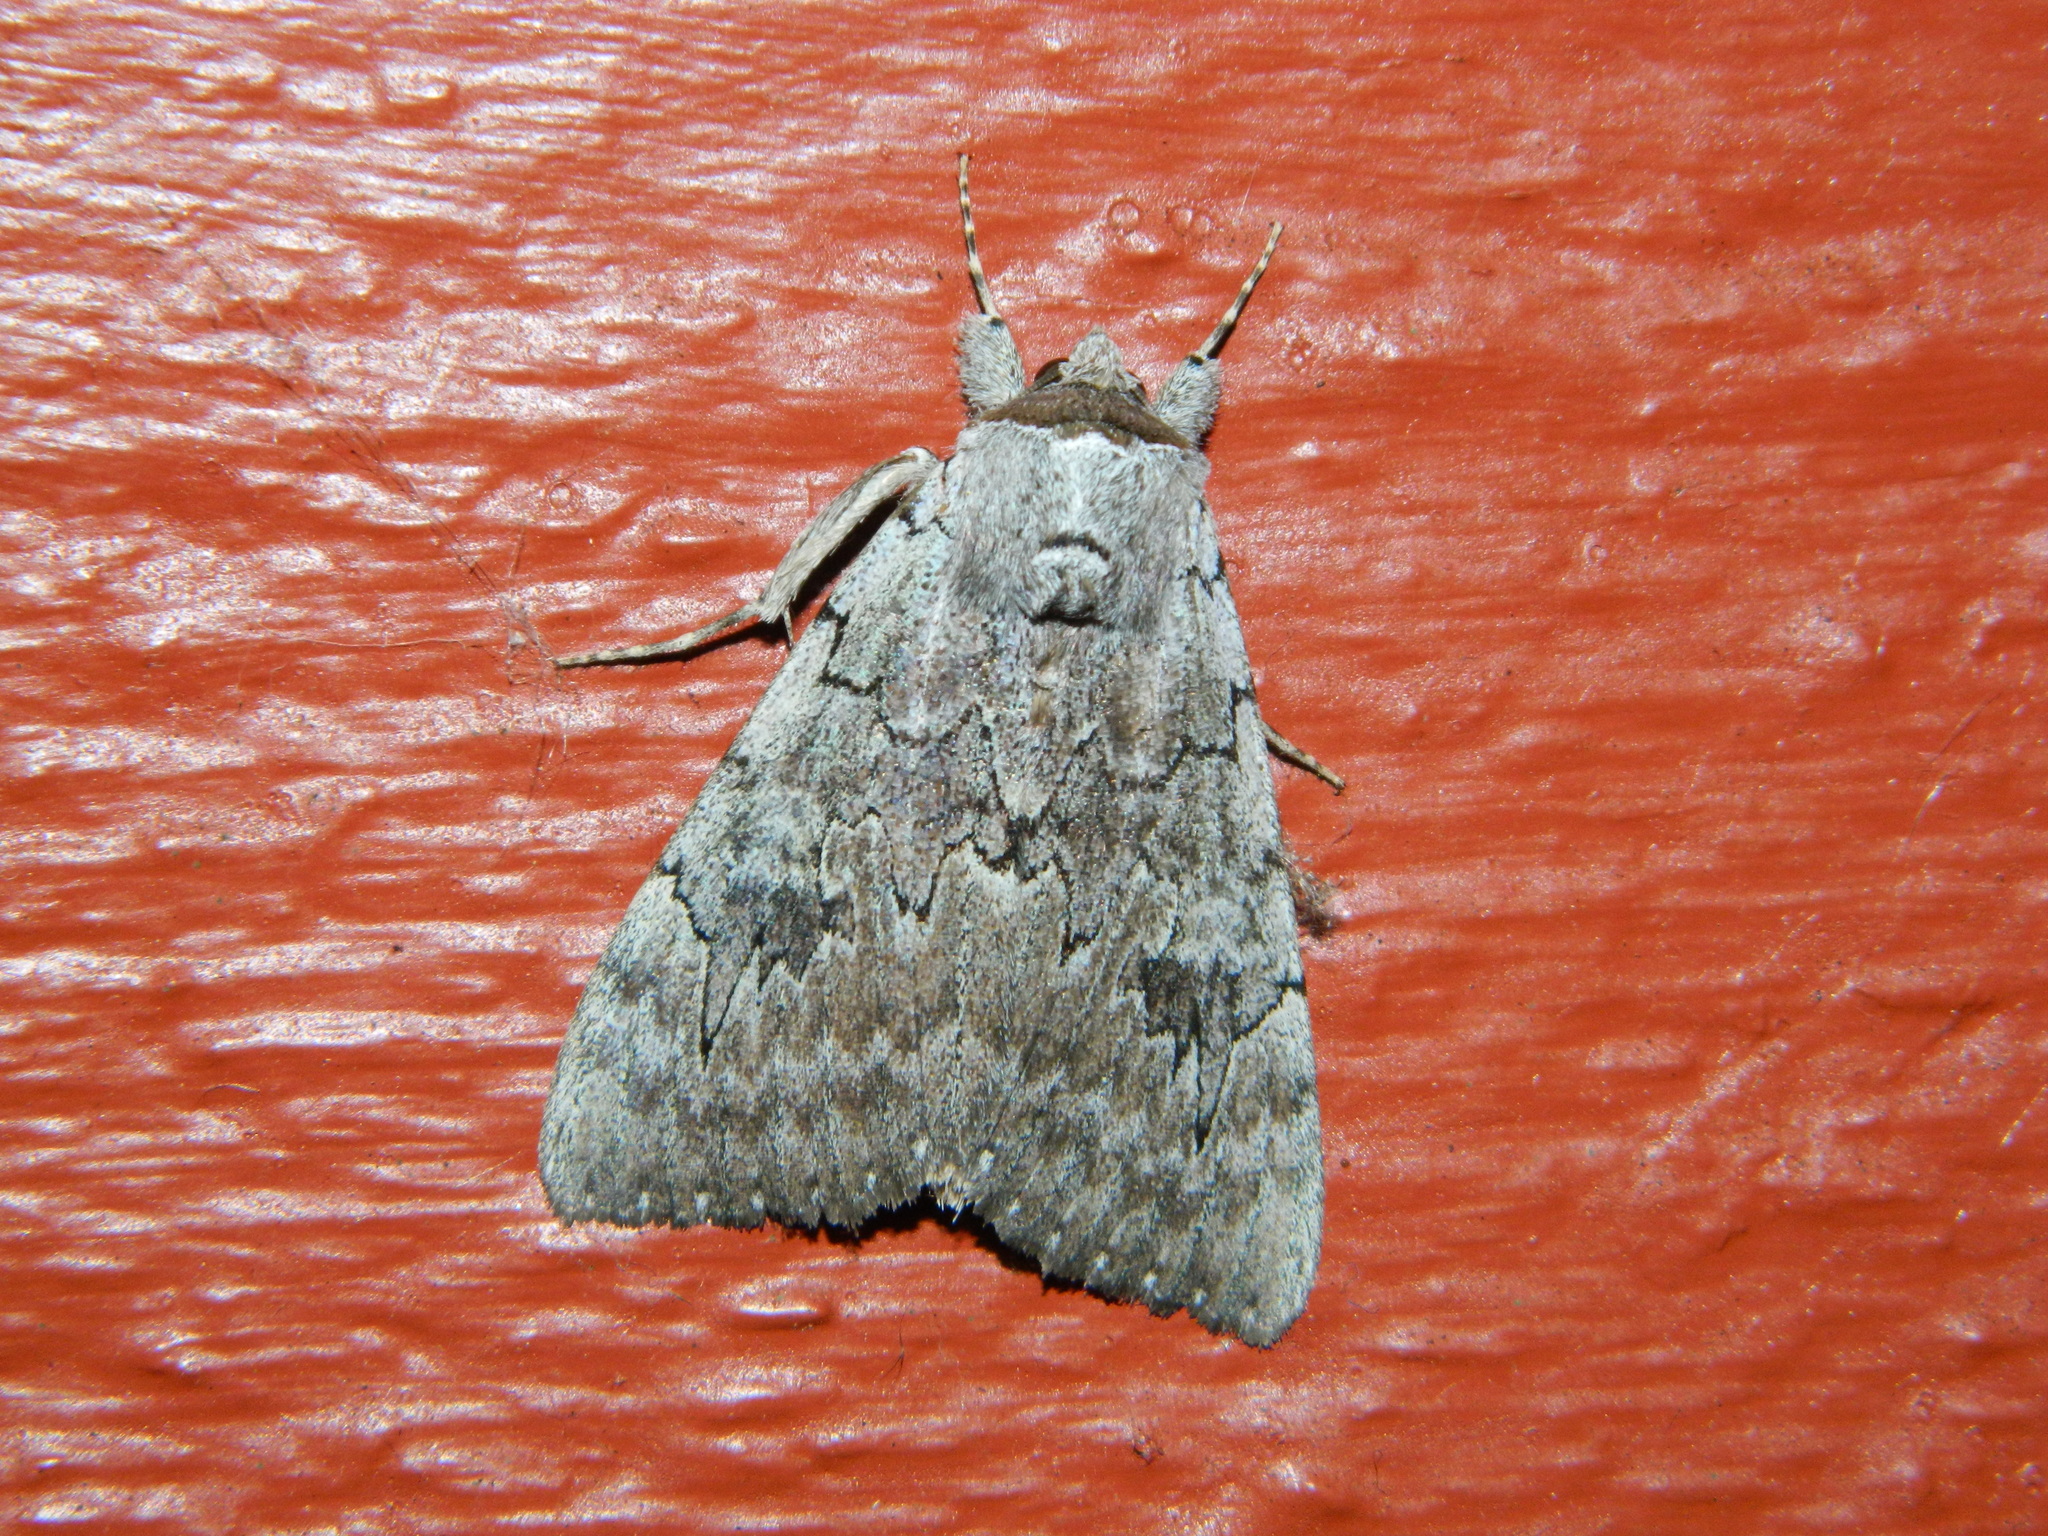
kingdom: Animalia
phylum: Arthropoda
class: Insecta
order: Lepidoptera
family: Erebidae
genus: Catocala
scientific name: Catocala concumbens
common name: Pink underwing
